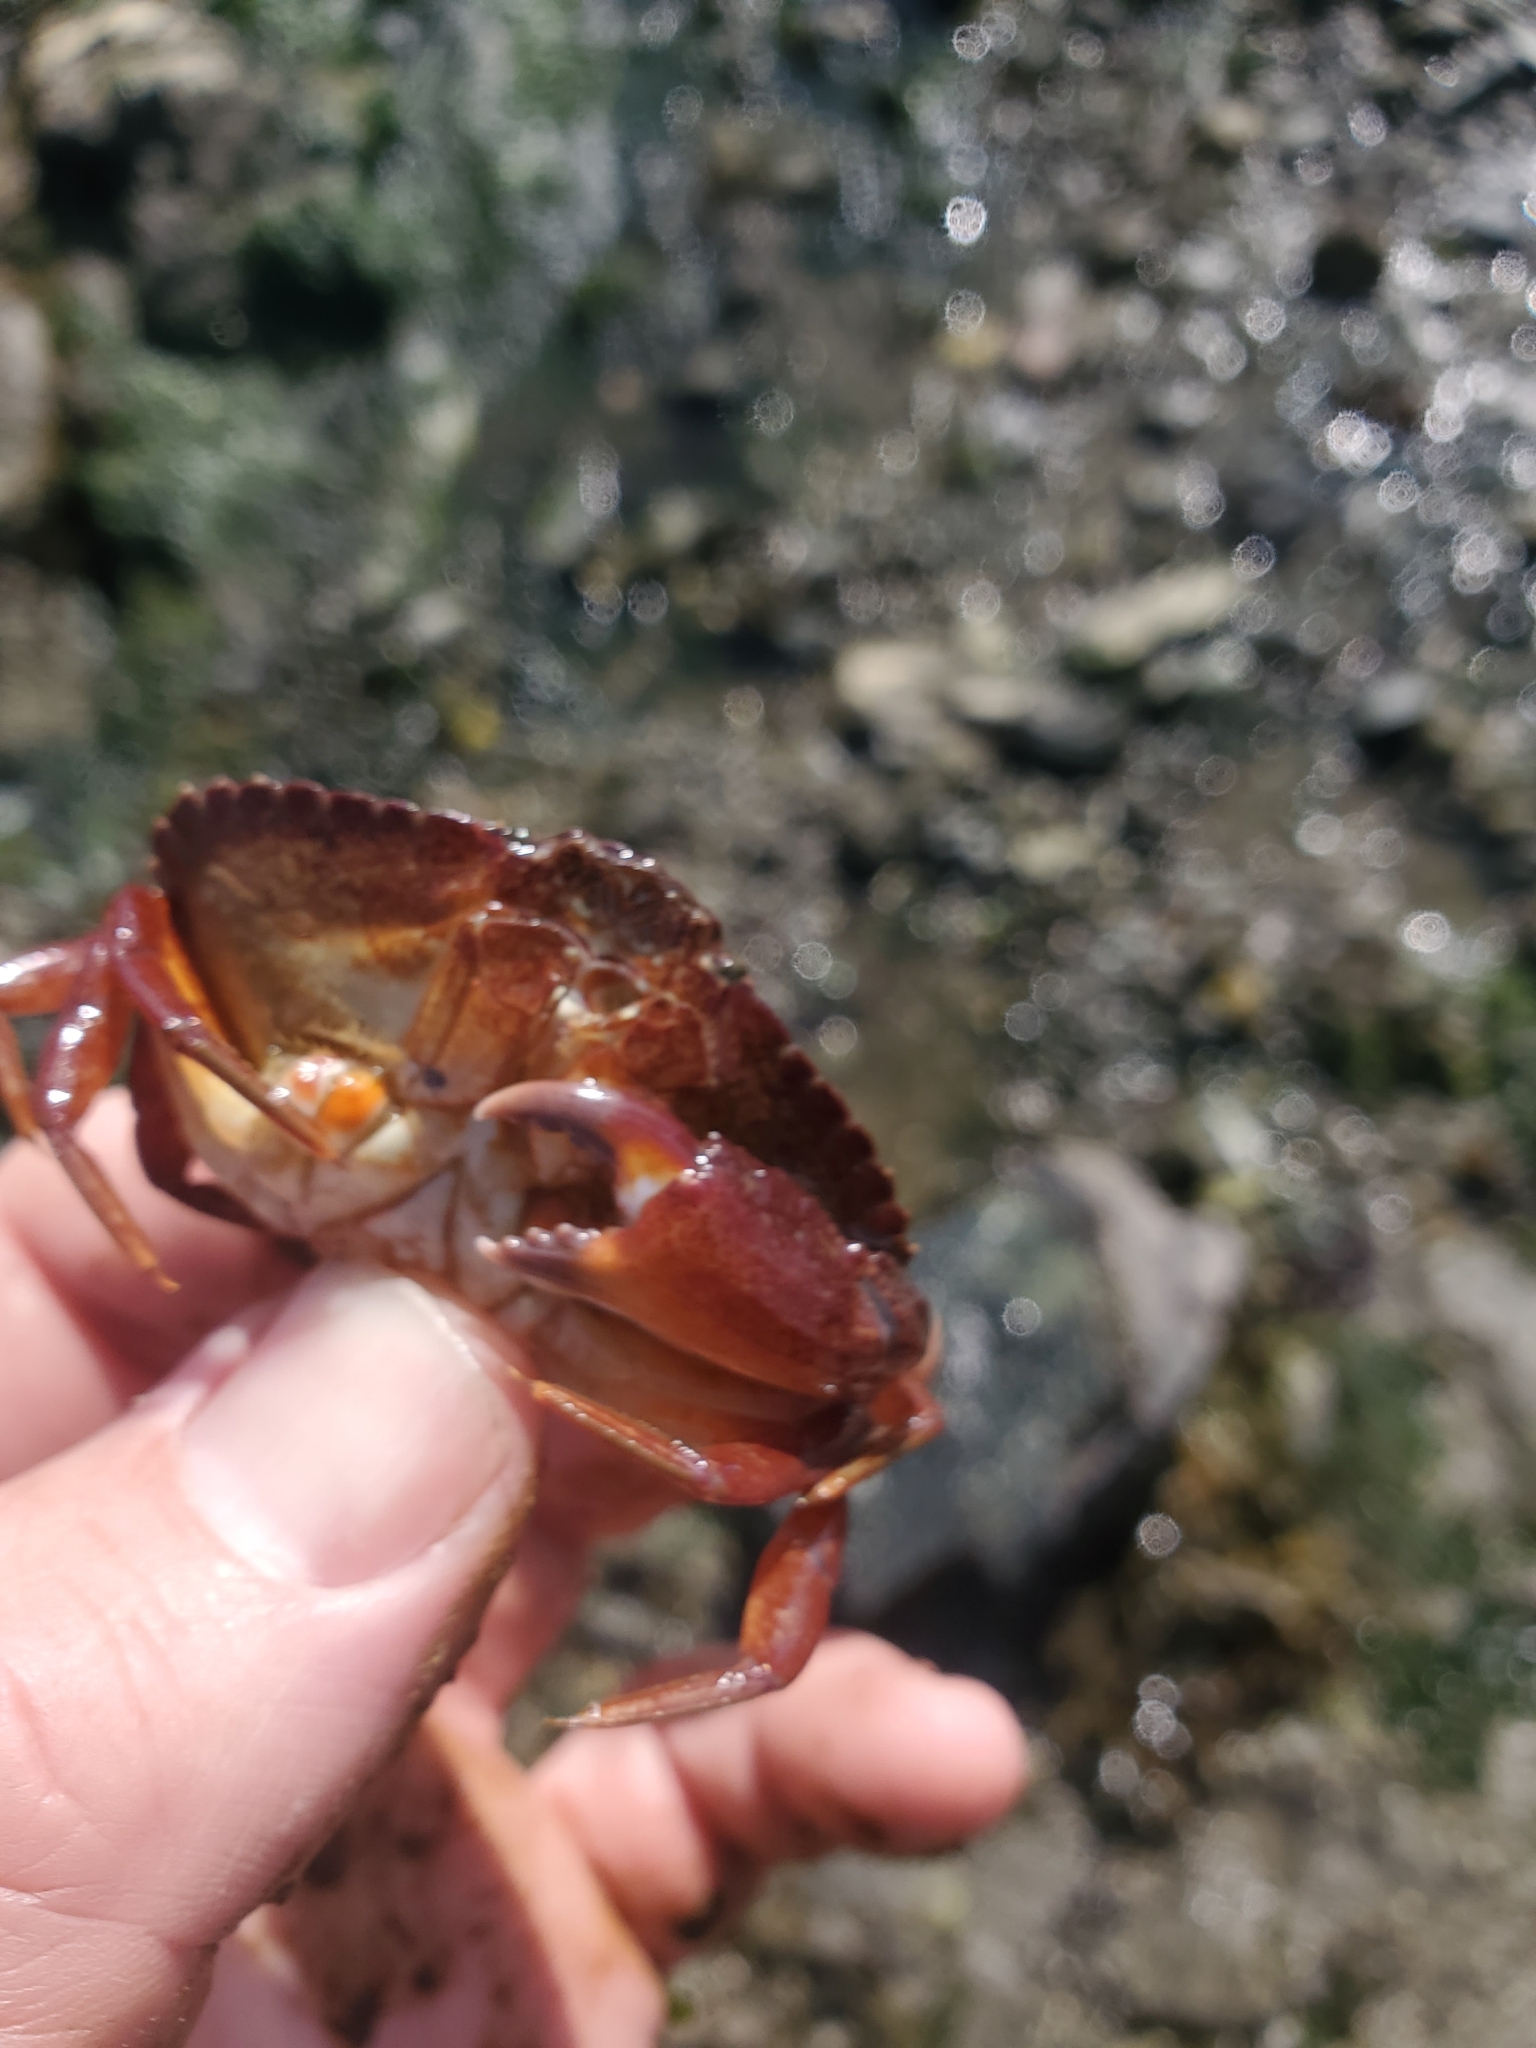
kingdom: Animalia
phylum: Arthropoda
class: Malacostraca
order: Decapoda
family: Cancridae
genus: Cancer
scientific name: Cancer productus
